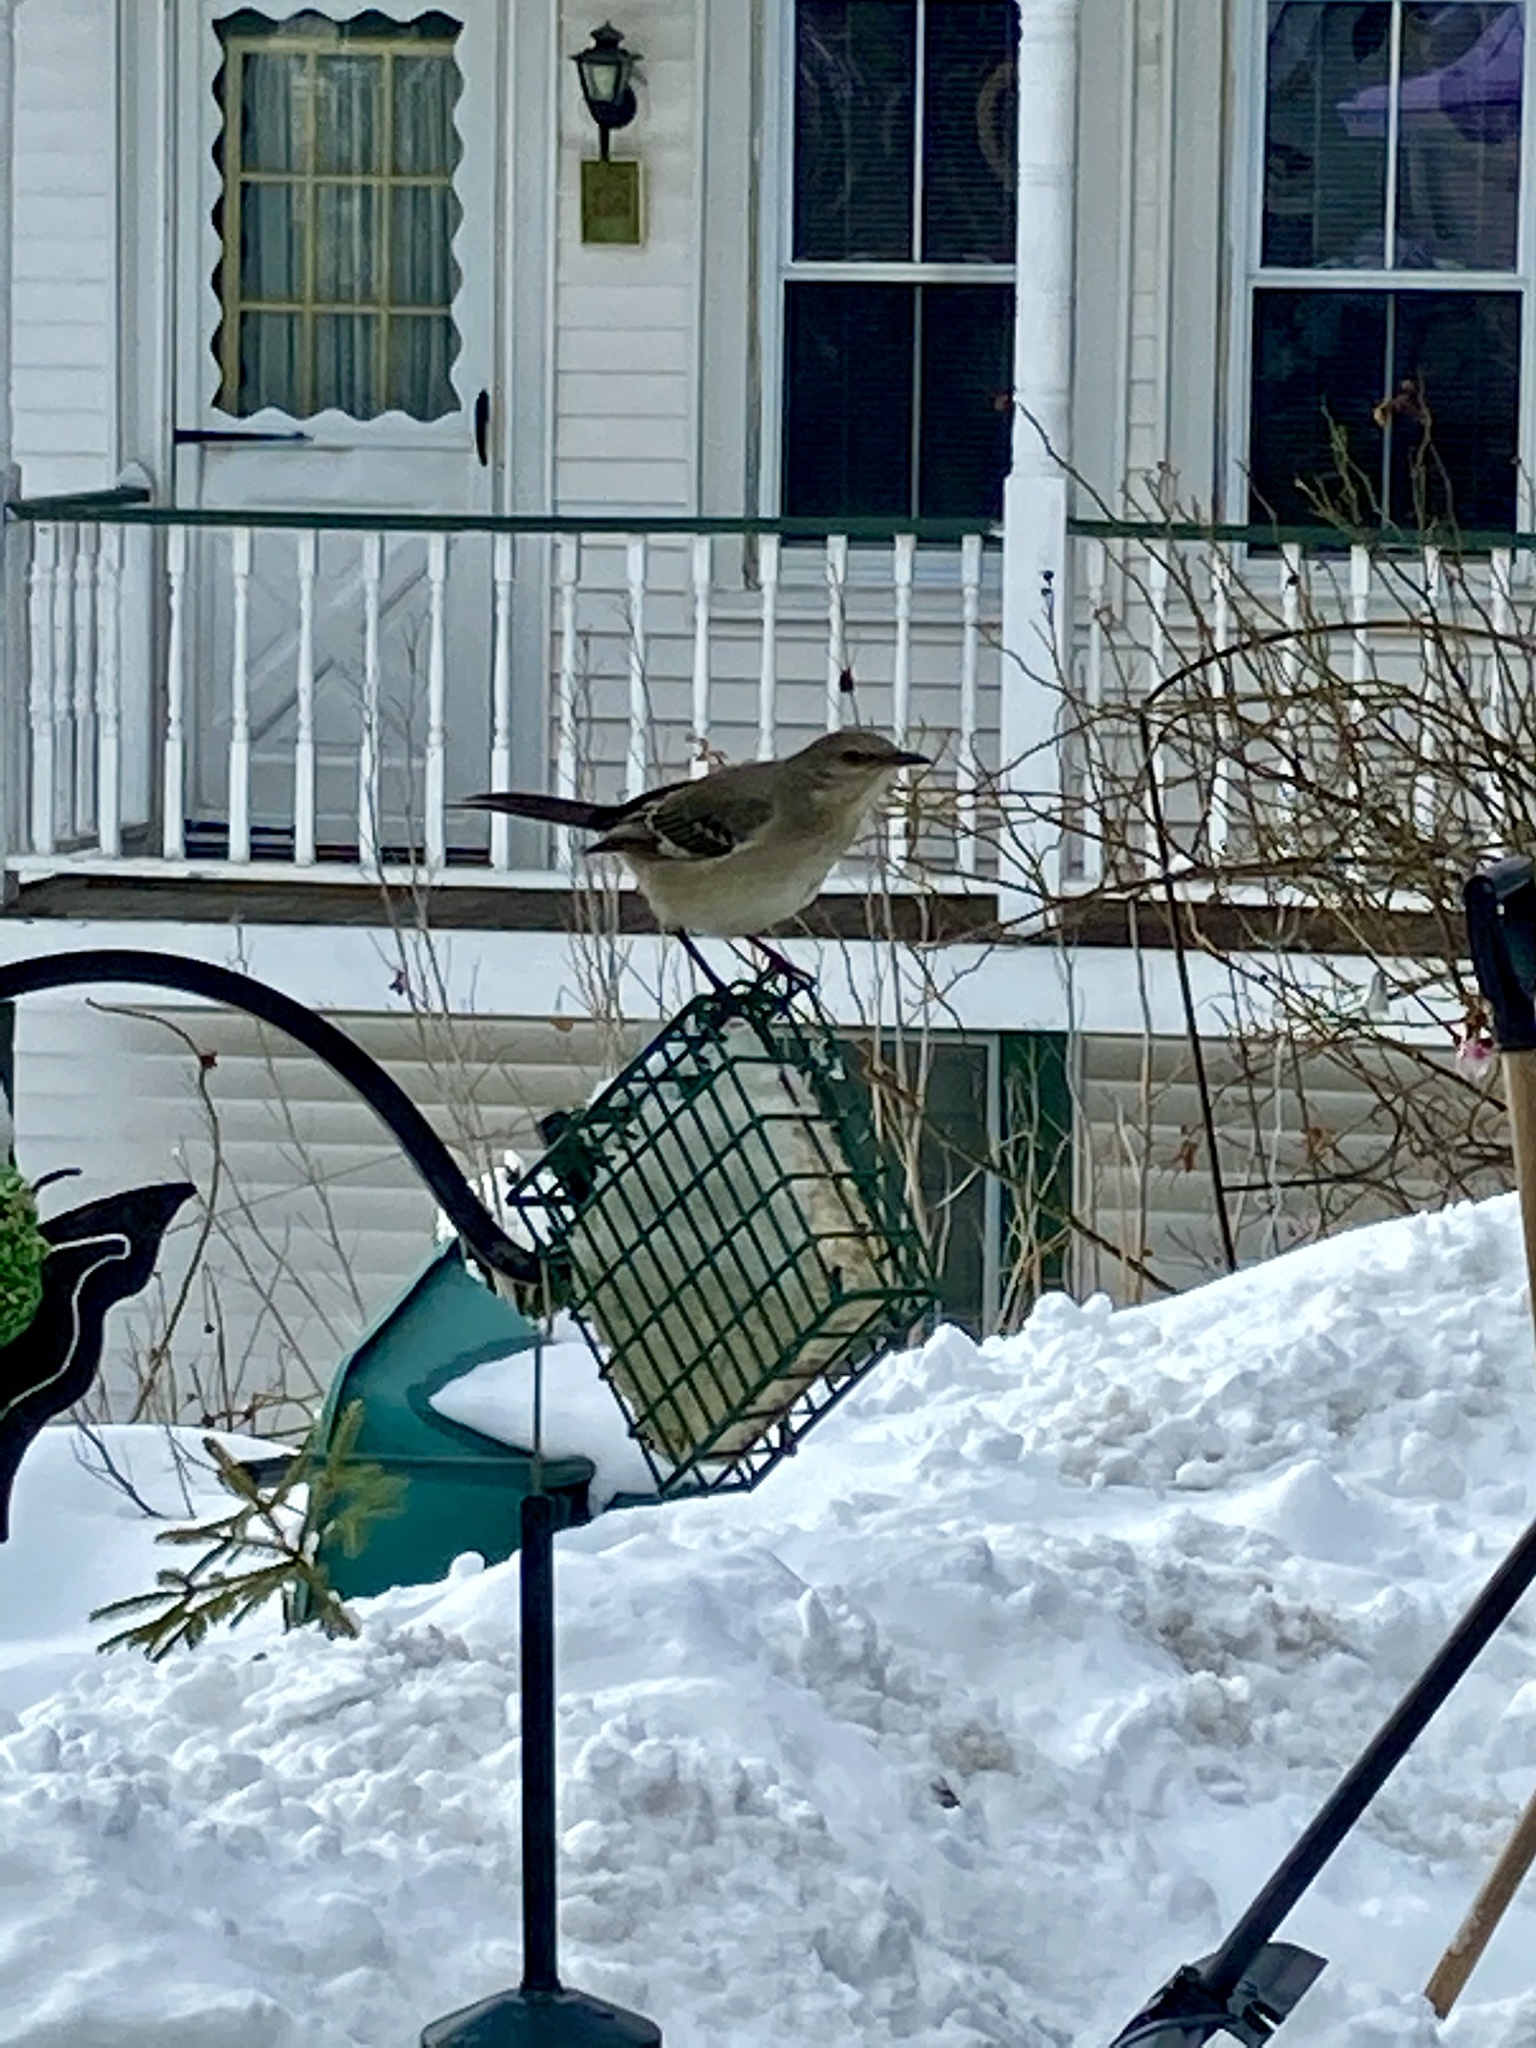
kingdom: Animalia
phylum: Chordata
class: Aves
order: Passeriformes
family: Mimidae
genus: Mimus
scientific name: Mimus polyglottos
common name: Northern mockingbird
